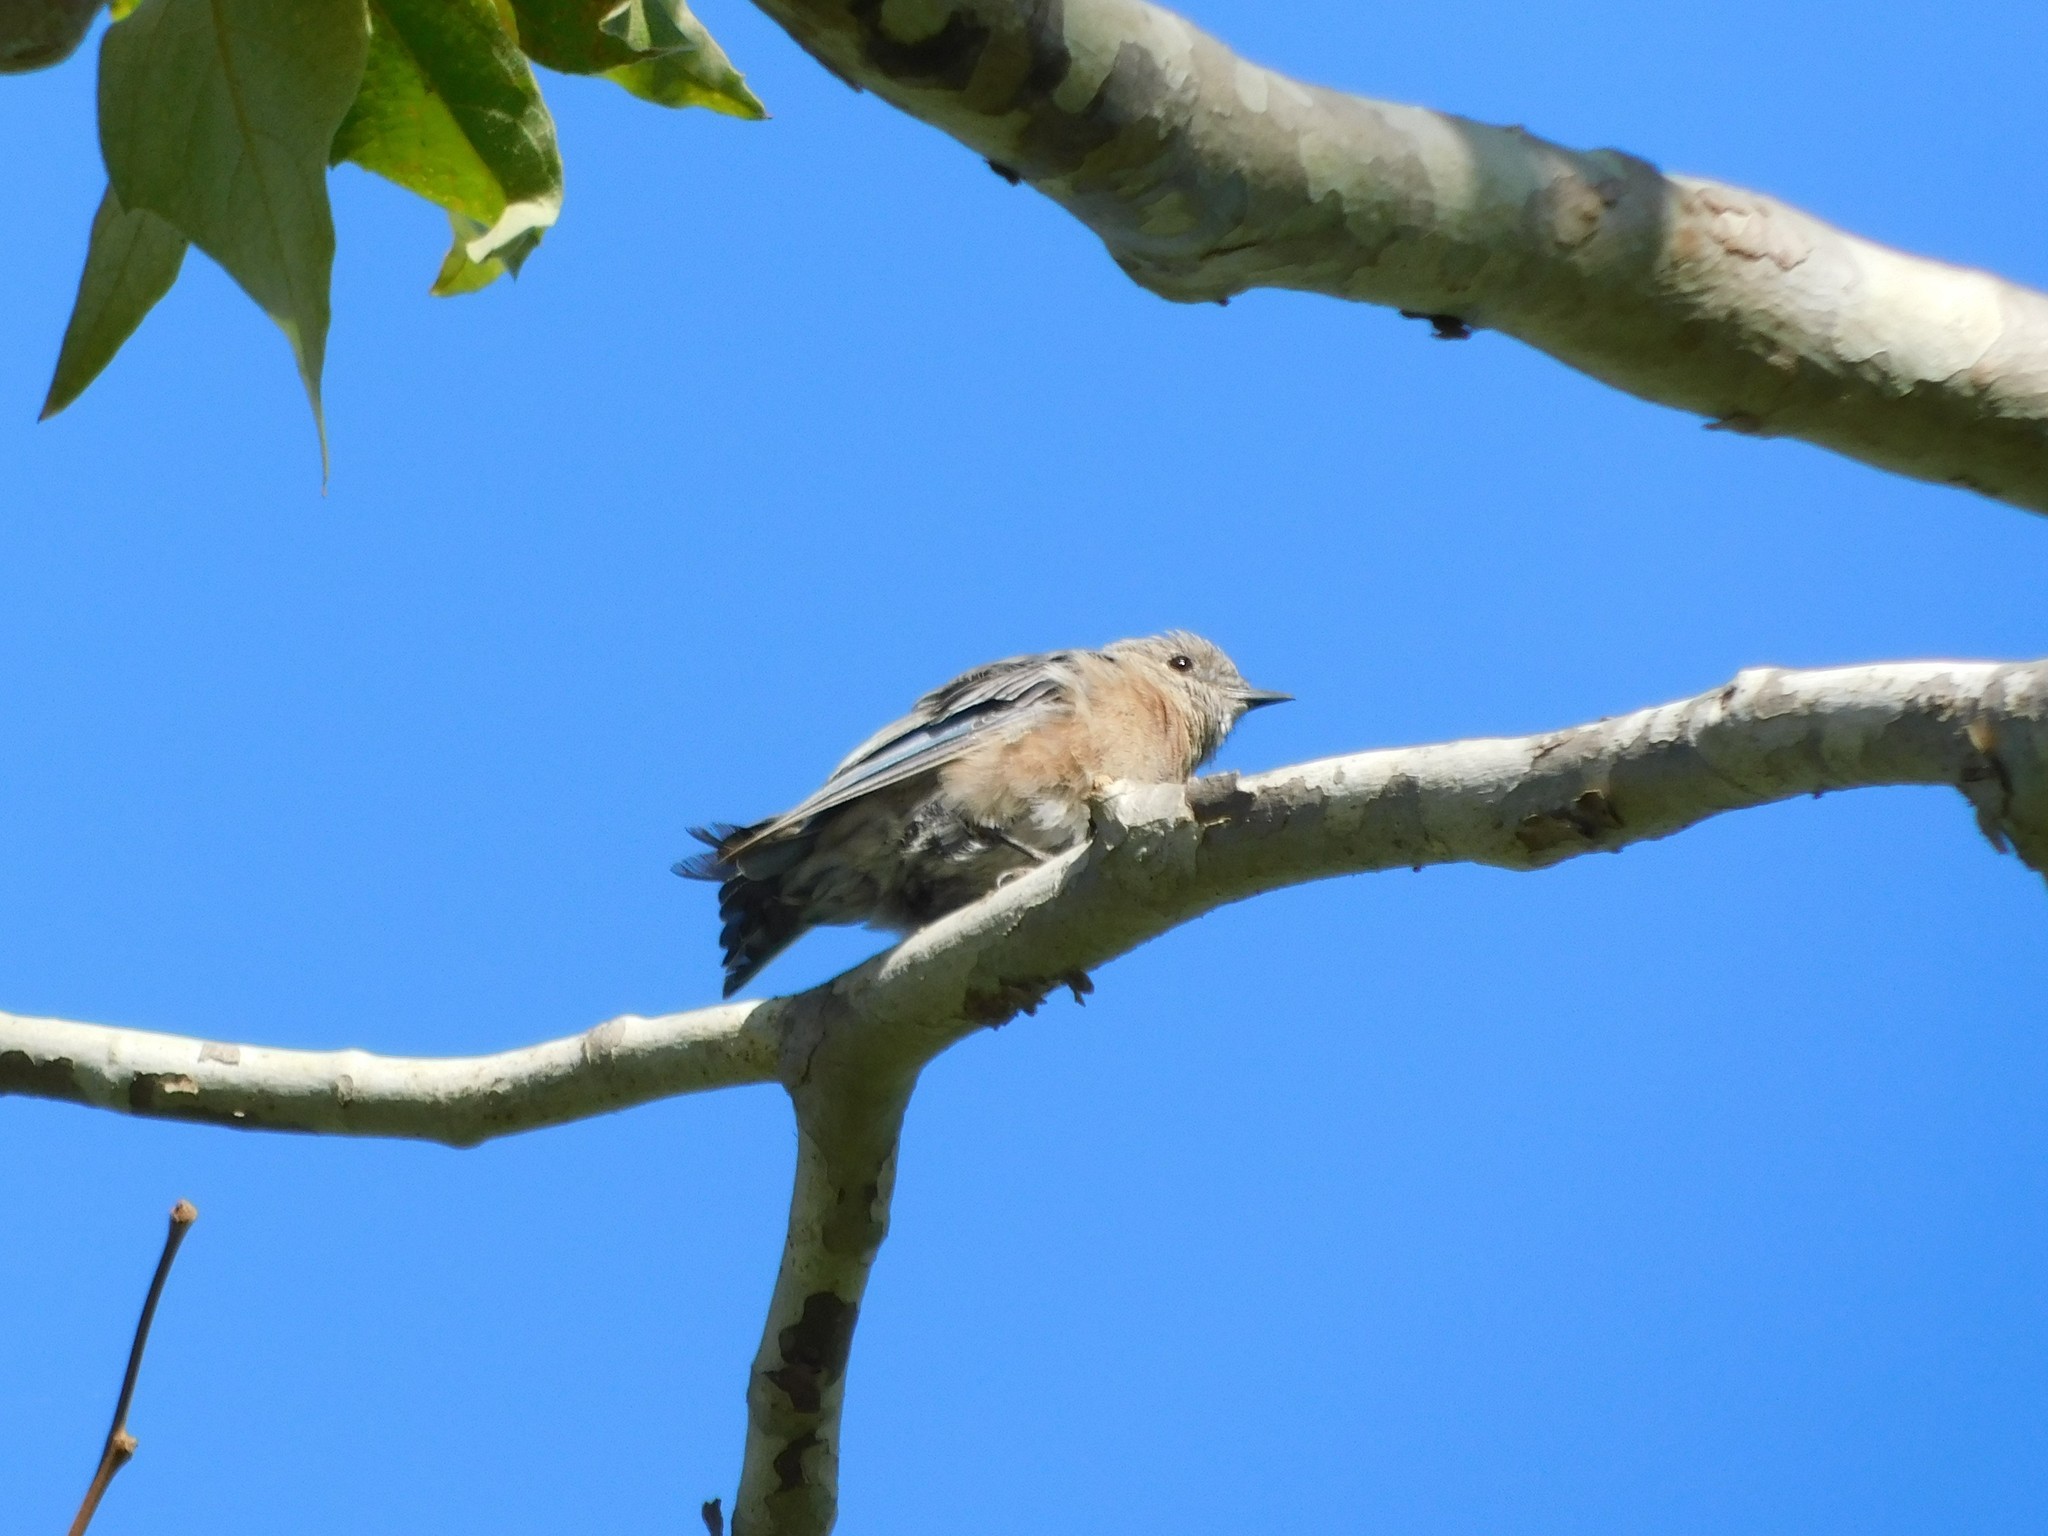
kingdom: Animalia
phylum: Chordata
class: Aves
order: Passeriformes
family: Turdidae
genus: Sialia
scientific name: Sialia mexicana
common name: Western bluebird
